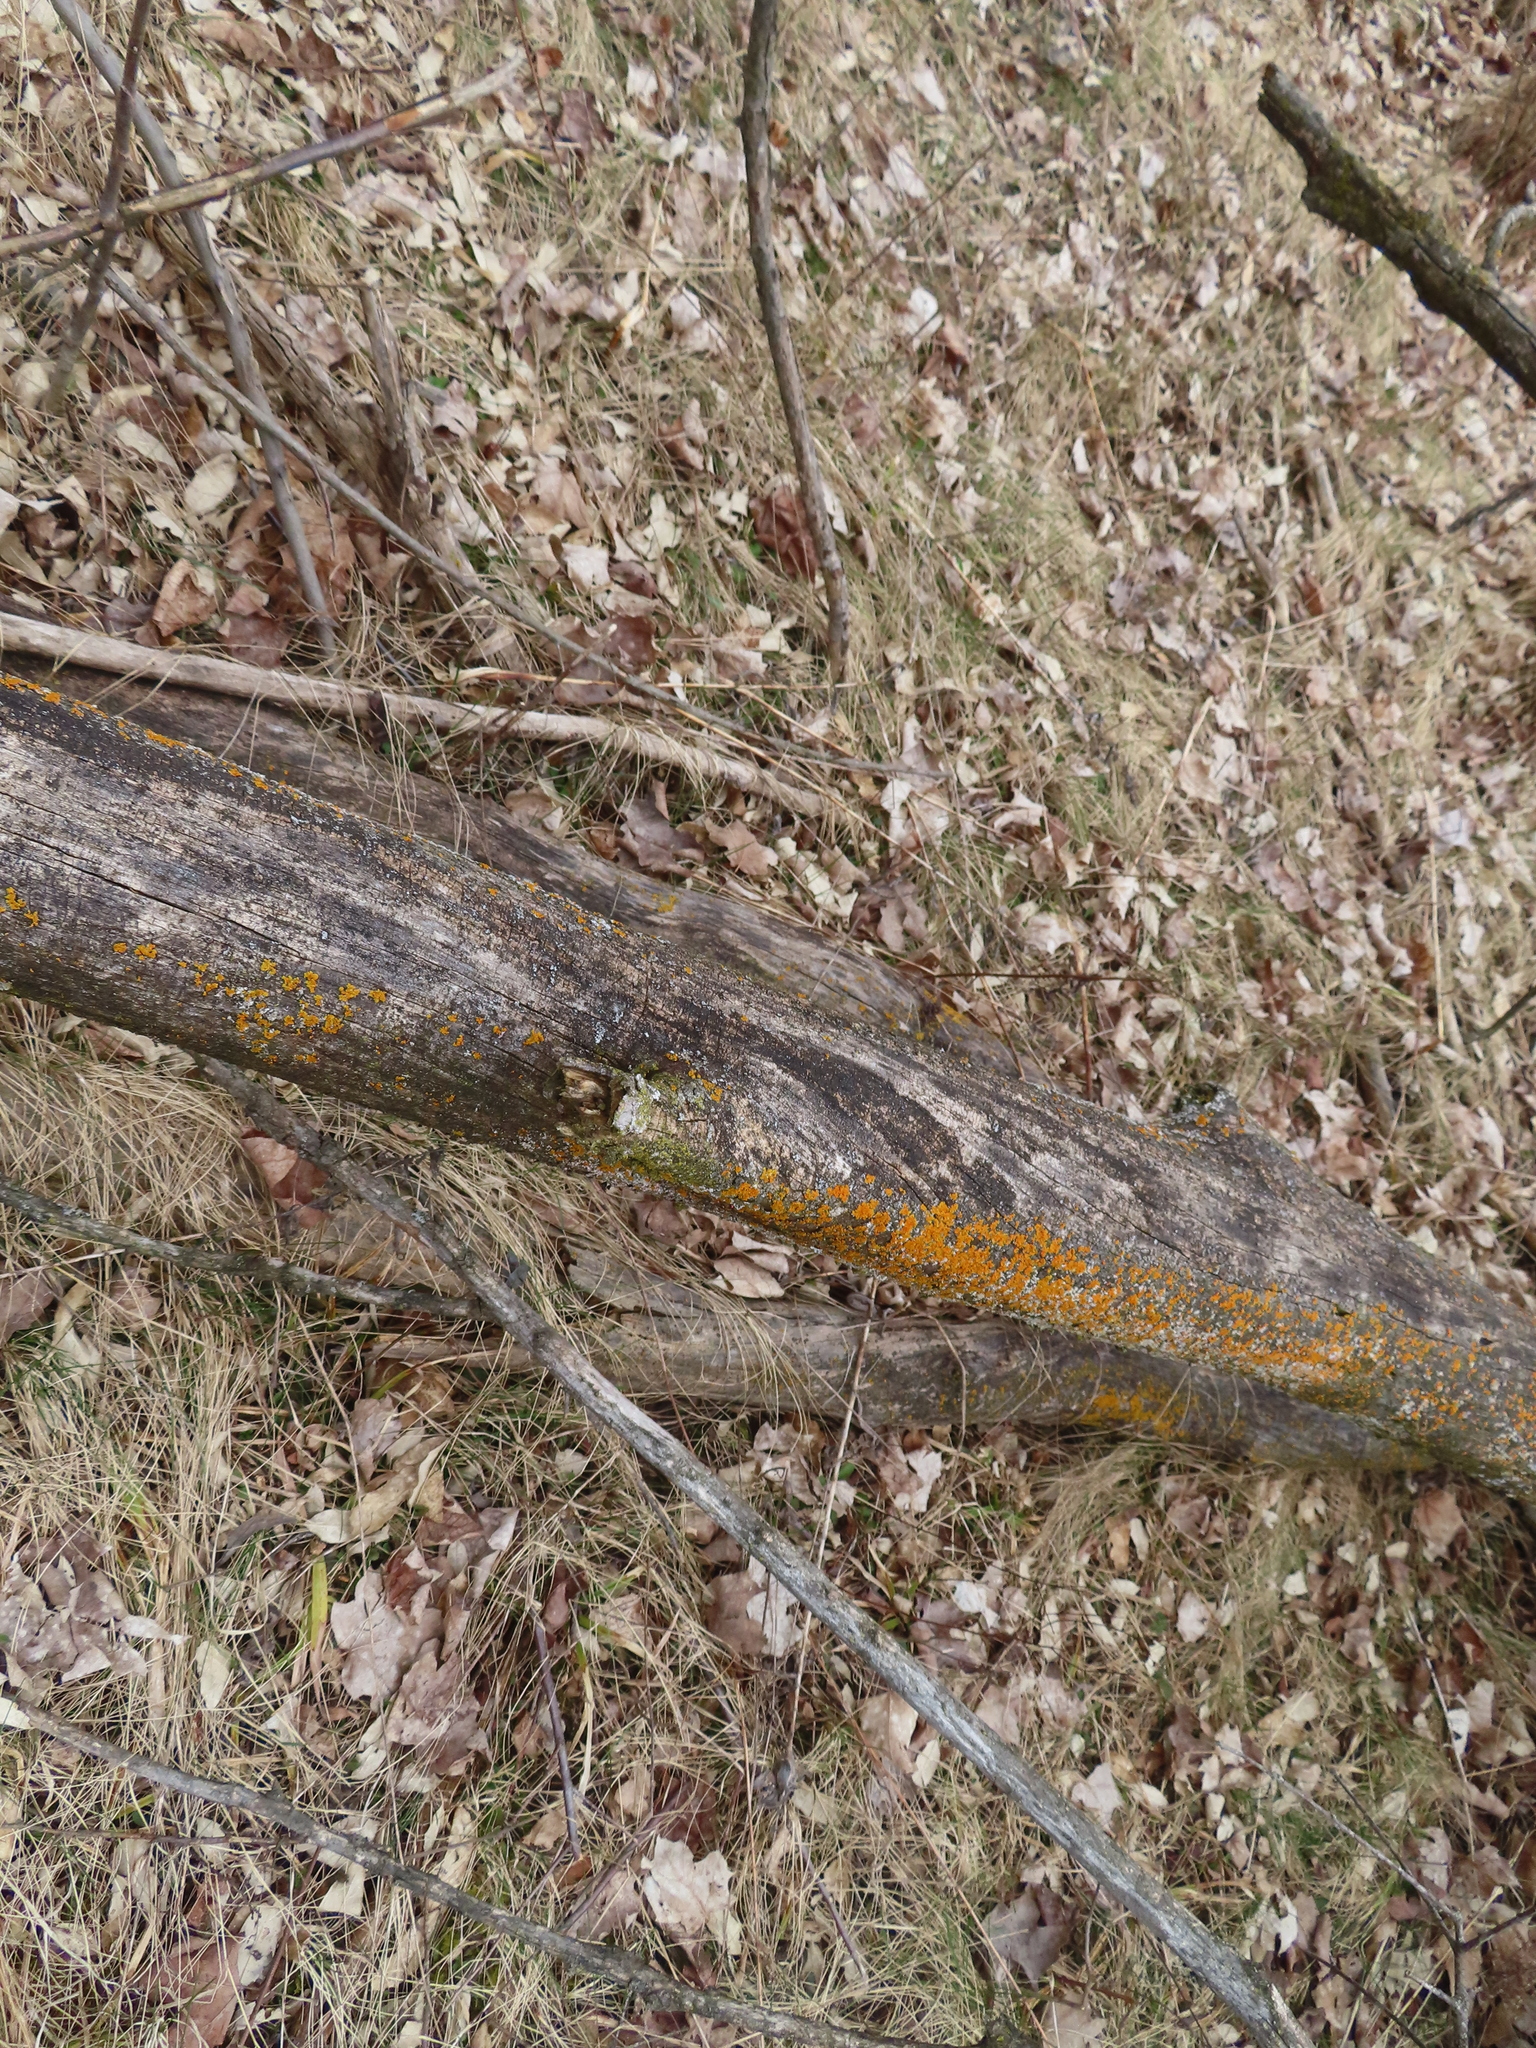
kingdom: Fungi
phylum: Ascomycota
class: Lecanoromycetes
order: Teloschistales
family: Teloschistaceae
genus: Oxneria
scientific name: Oxneria fallax
